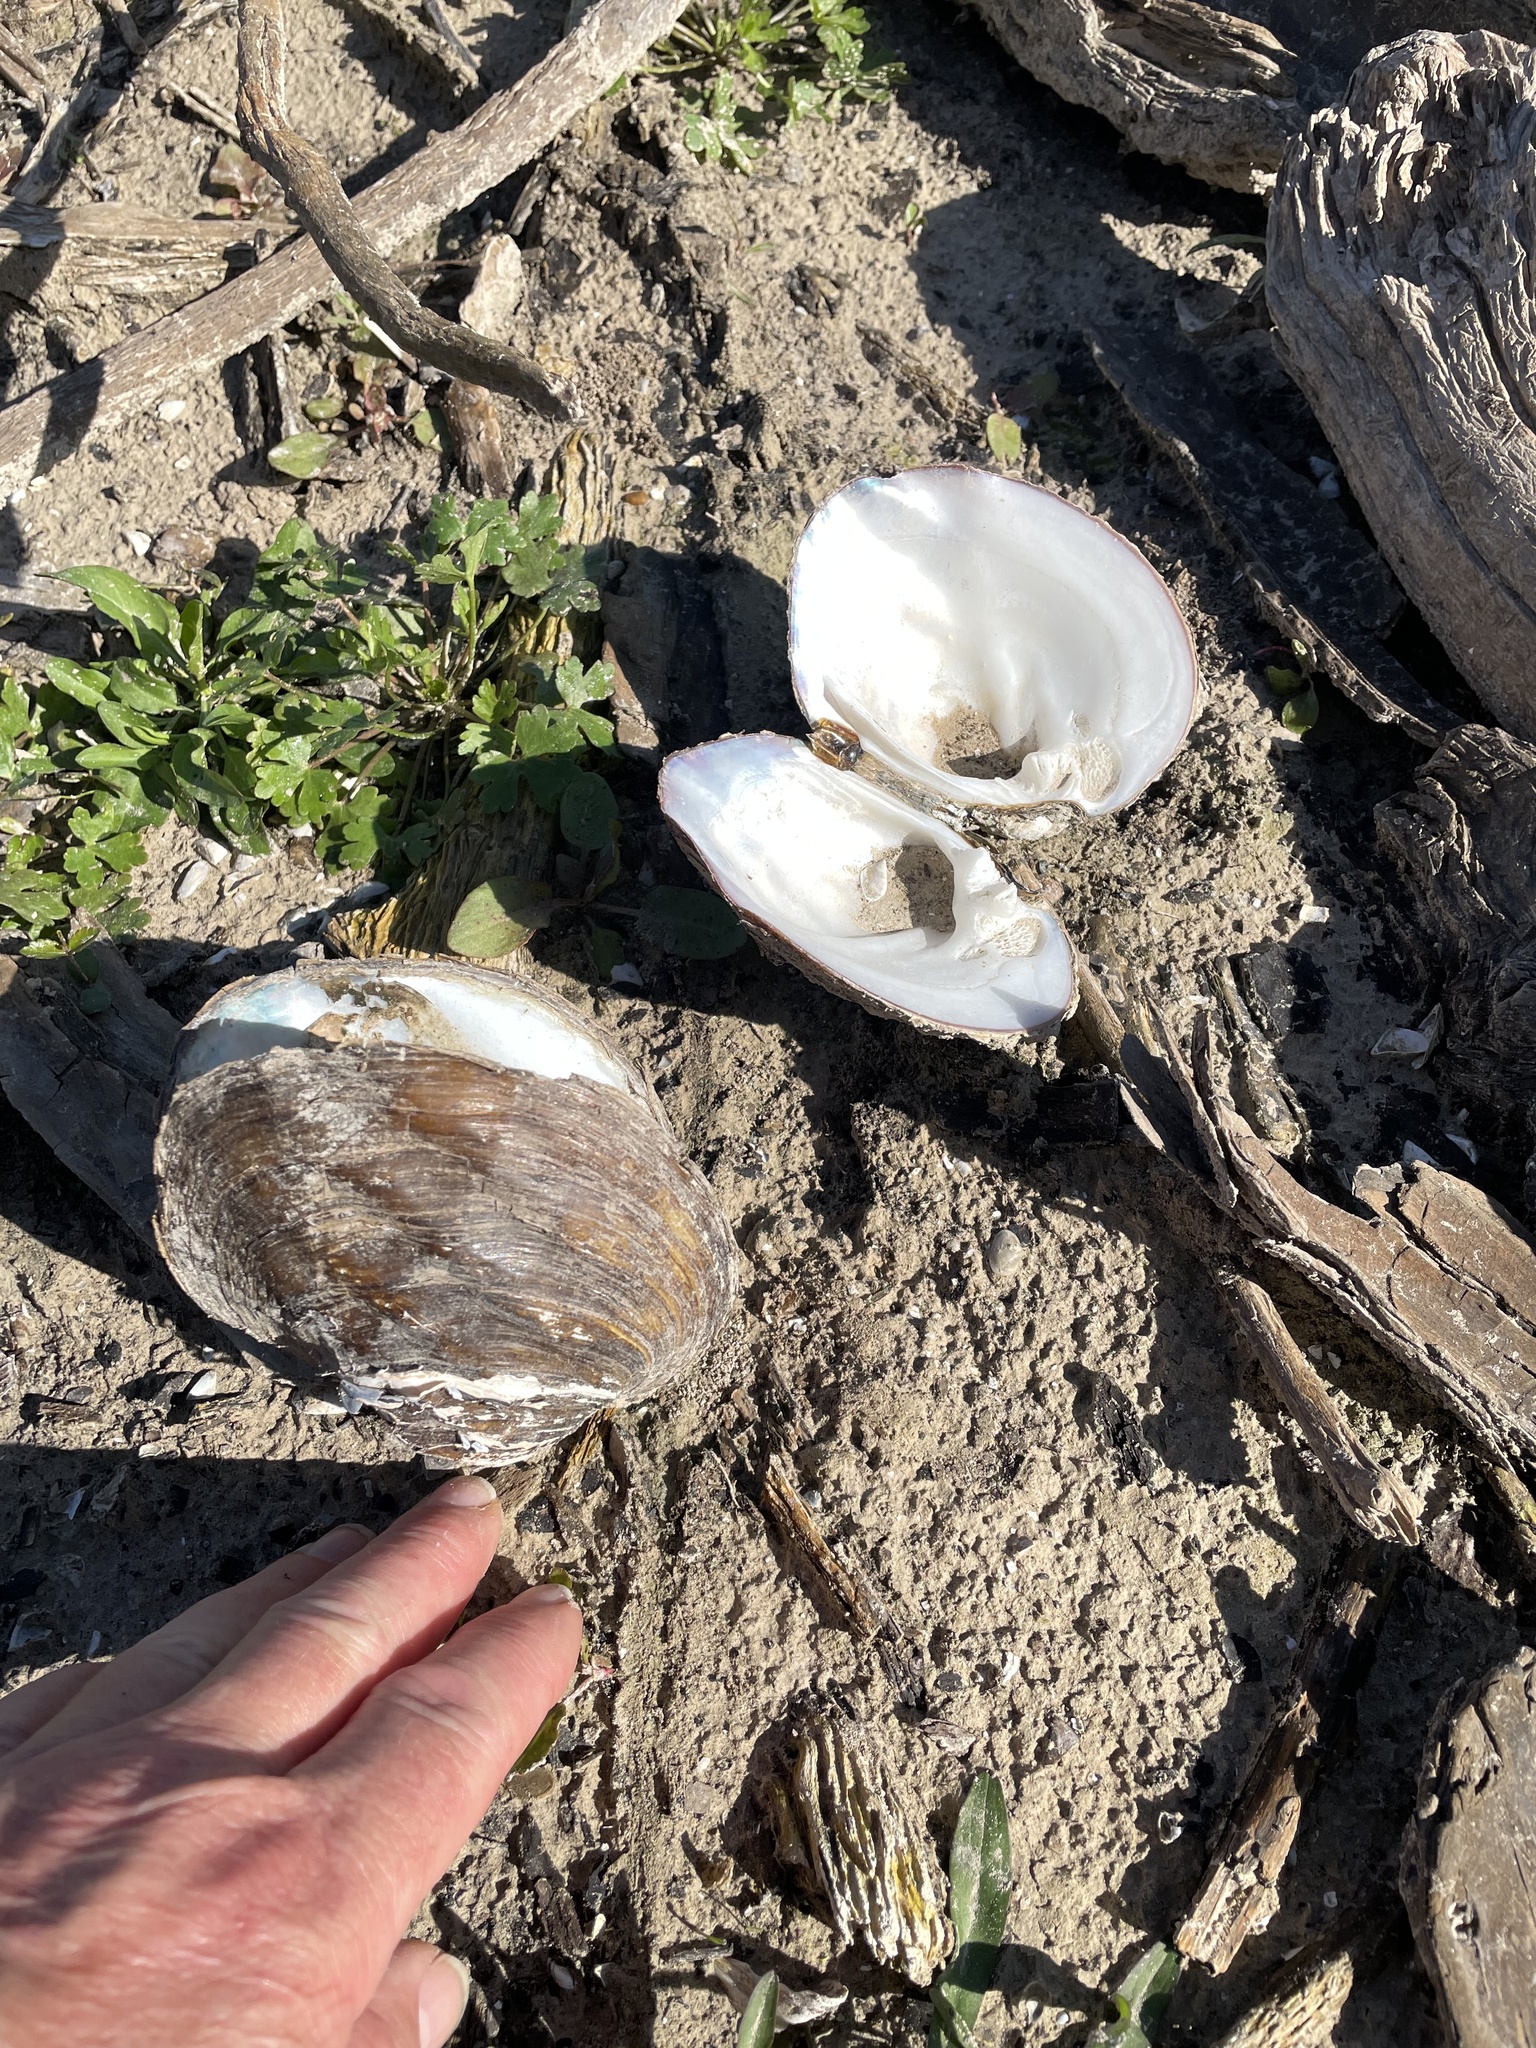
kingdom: Animalia
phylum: Mollusca
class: Bivalvia
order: Unionida
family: Unionidae
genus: Amblema
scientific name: Amblema plicata
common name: Threeridge
